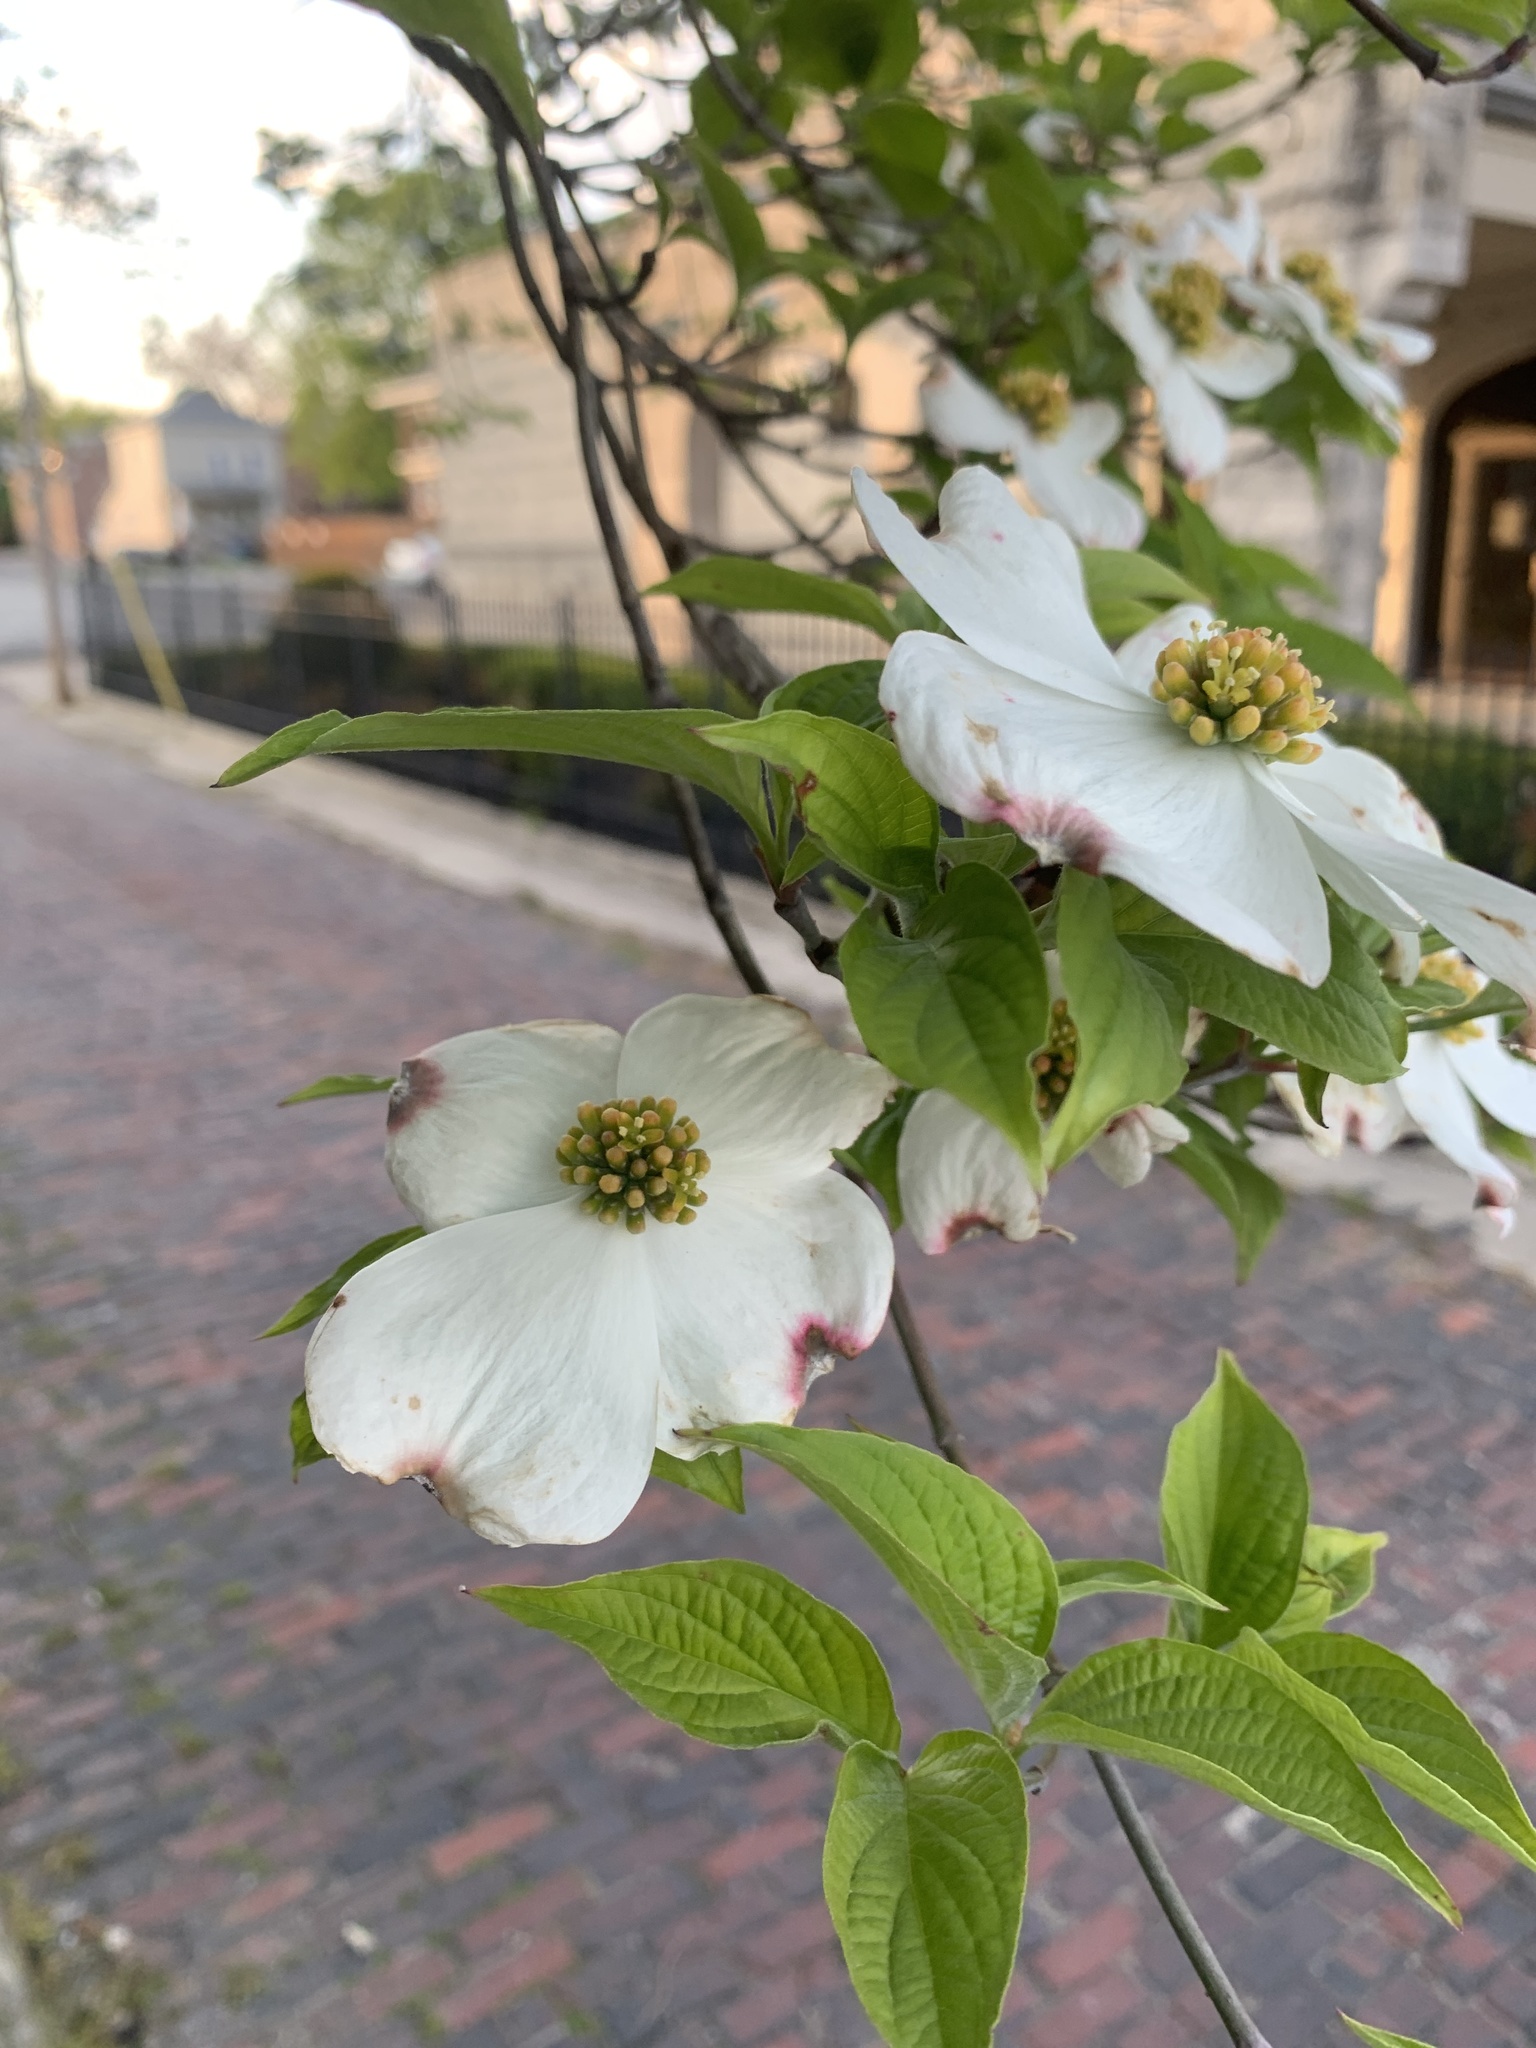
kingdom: Plantae
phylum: Tracheophyta
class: Magnoliopsida
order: Cornales
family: Cornaceae
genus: Cornus
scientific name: Cornus florida
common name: Flowering dogwood
